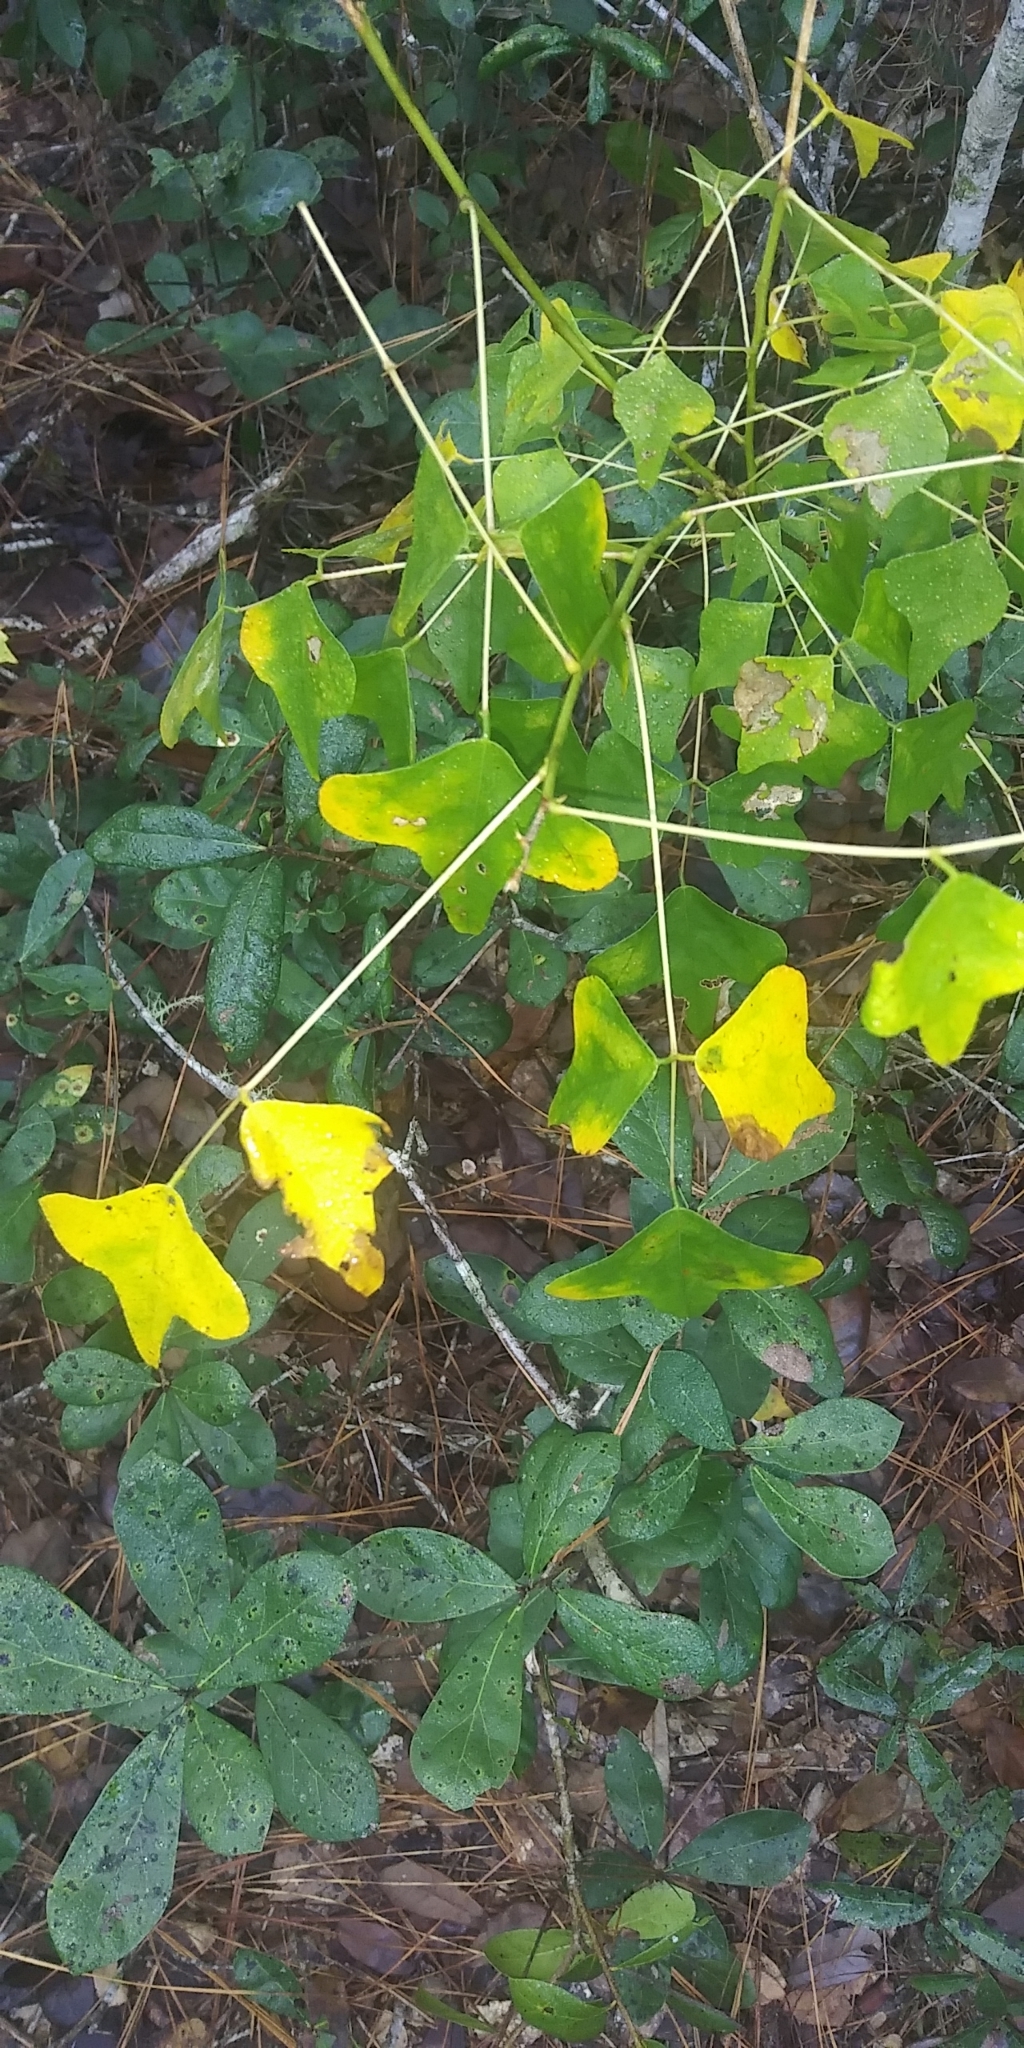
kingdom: Plantae
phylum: Tracheophyta
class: Magnoliopsida
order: Fabales
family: Fabaceae
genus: Erythrina
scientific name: Erythrina herbacea
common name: Coral-bean
